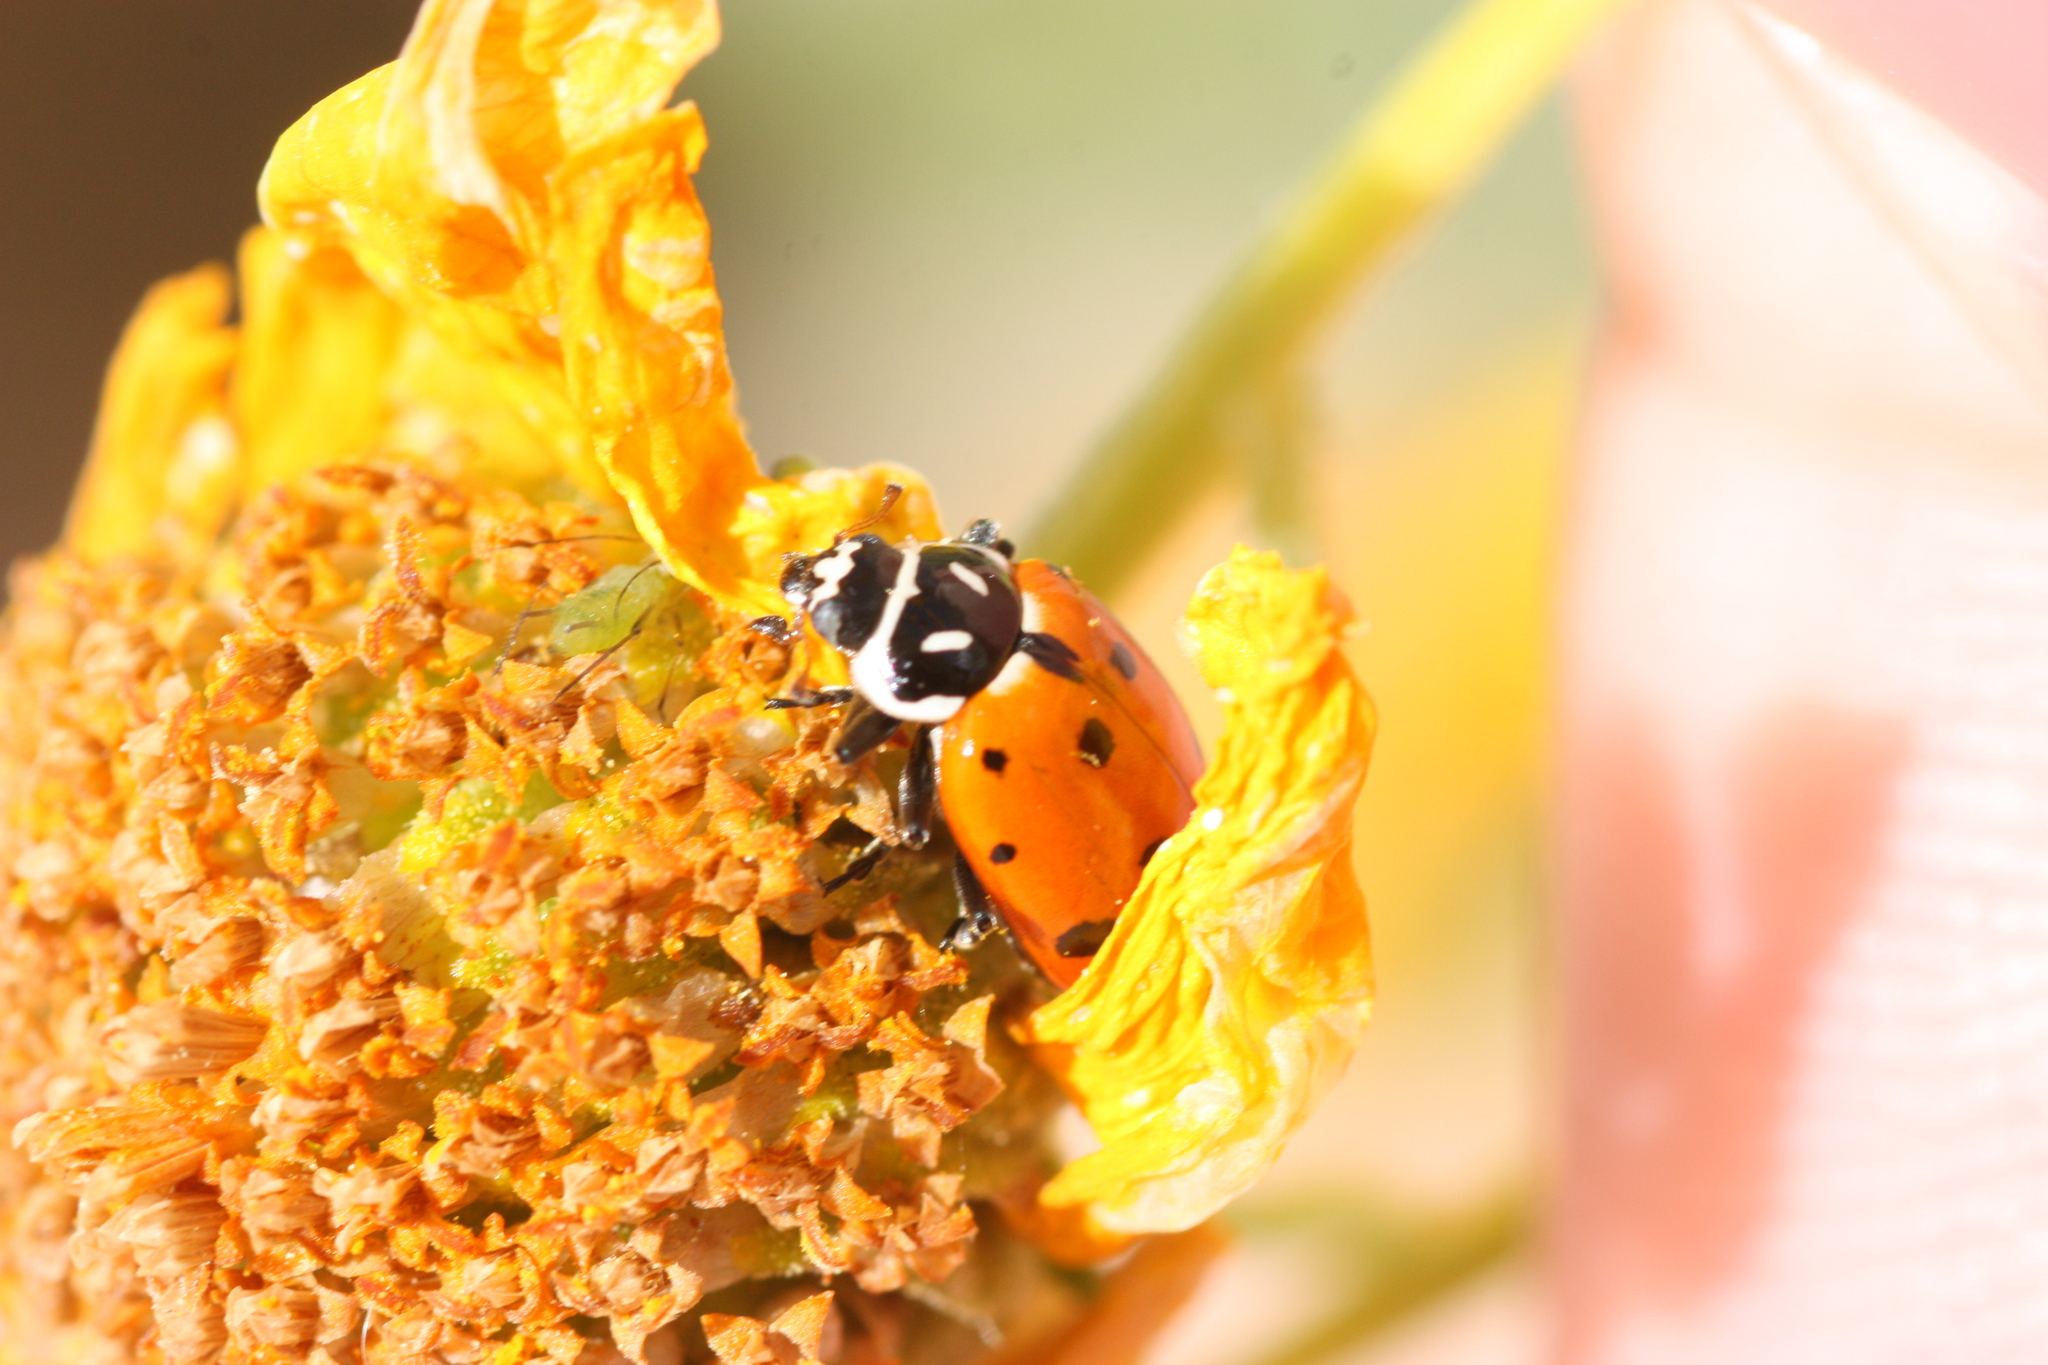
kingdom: Animalia
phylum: Arthropoda
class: Insecta
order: Coleoptera
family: Coccinellidae
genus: Hippodamia
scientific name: Hippodamia convergens
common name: Convergent lady beetle
